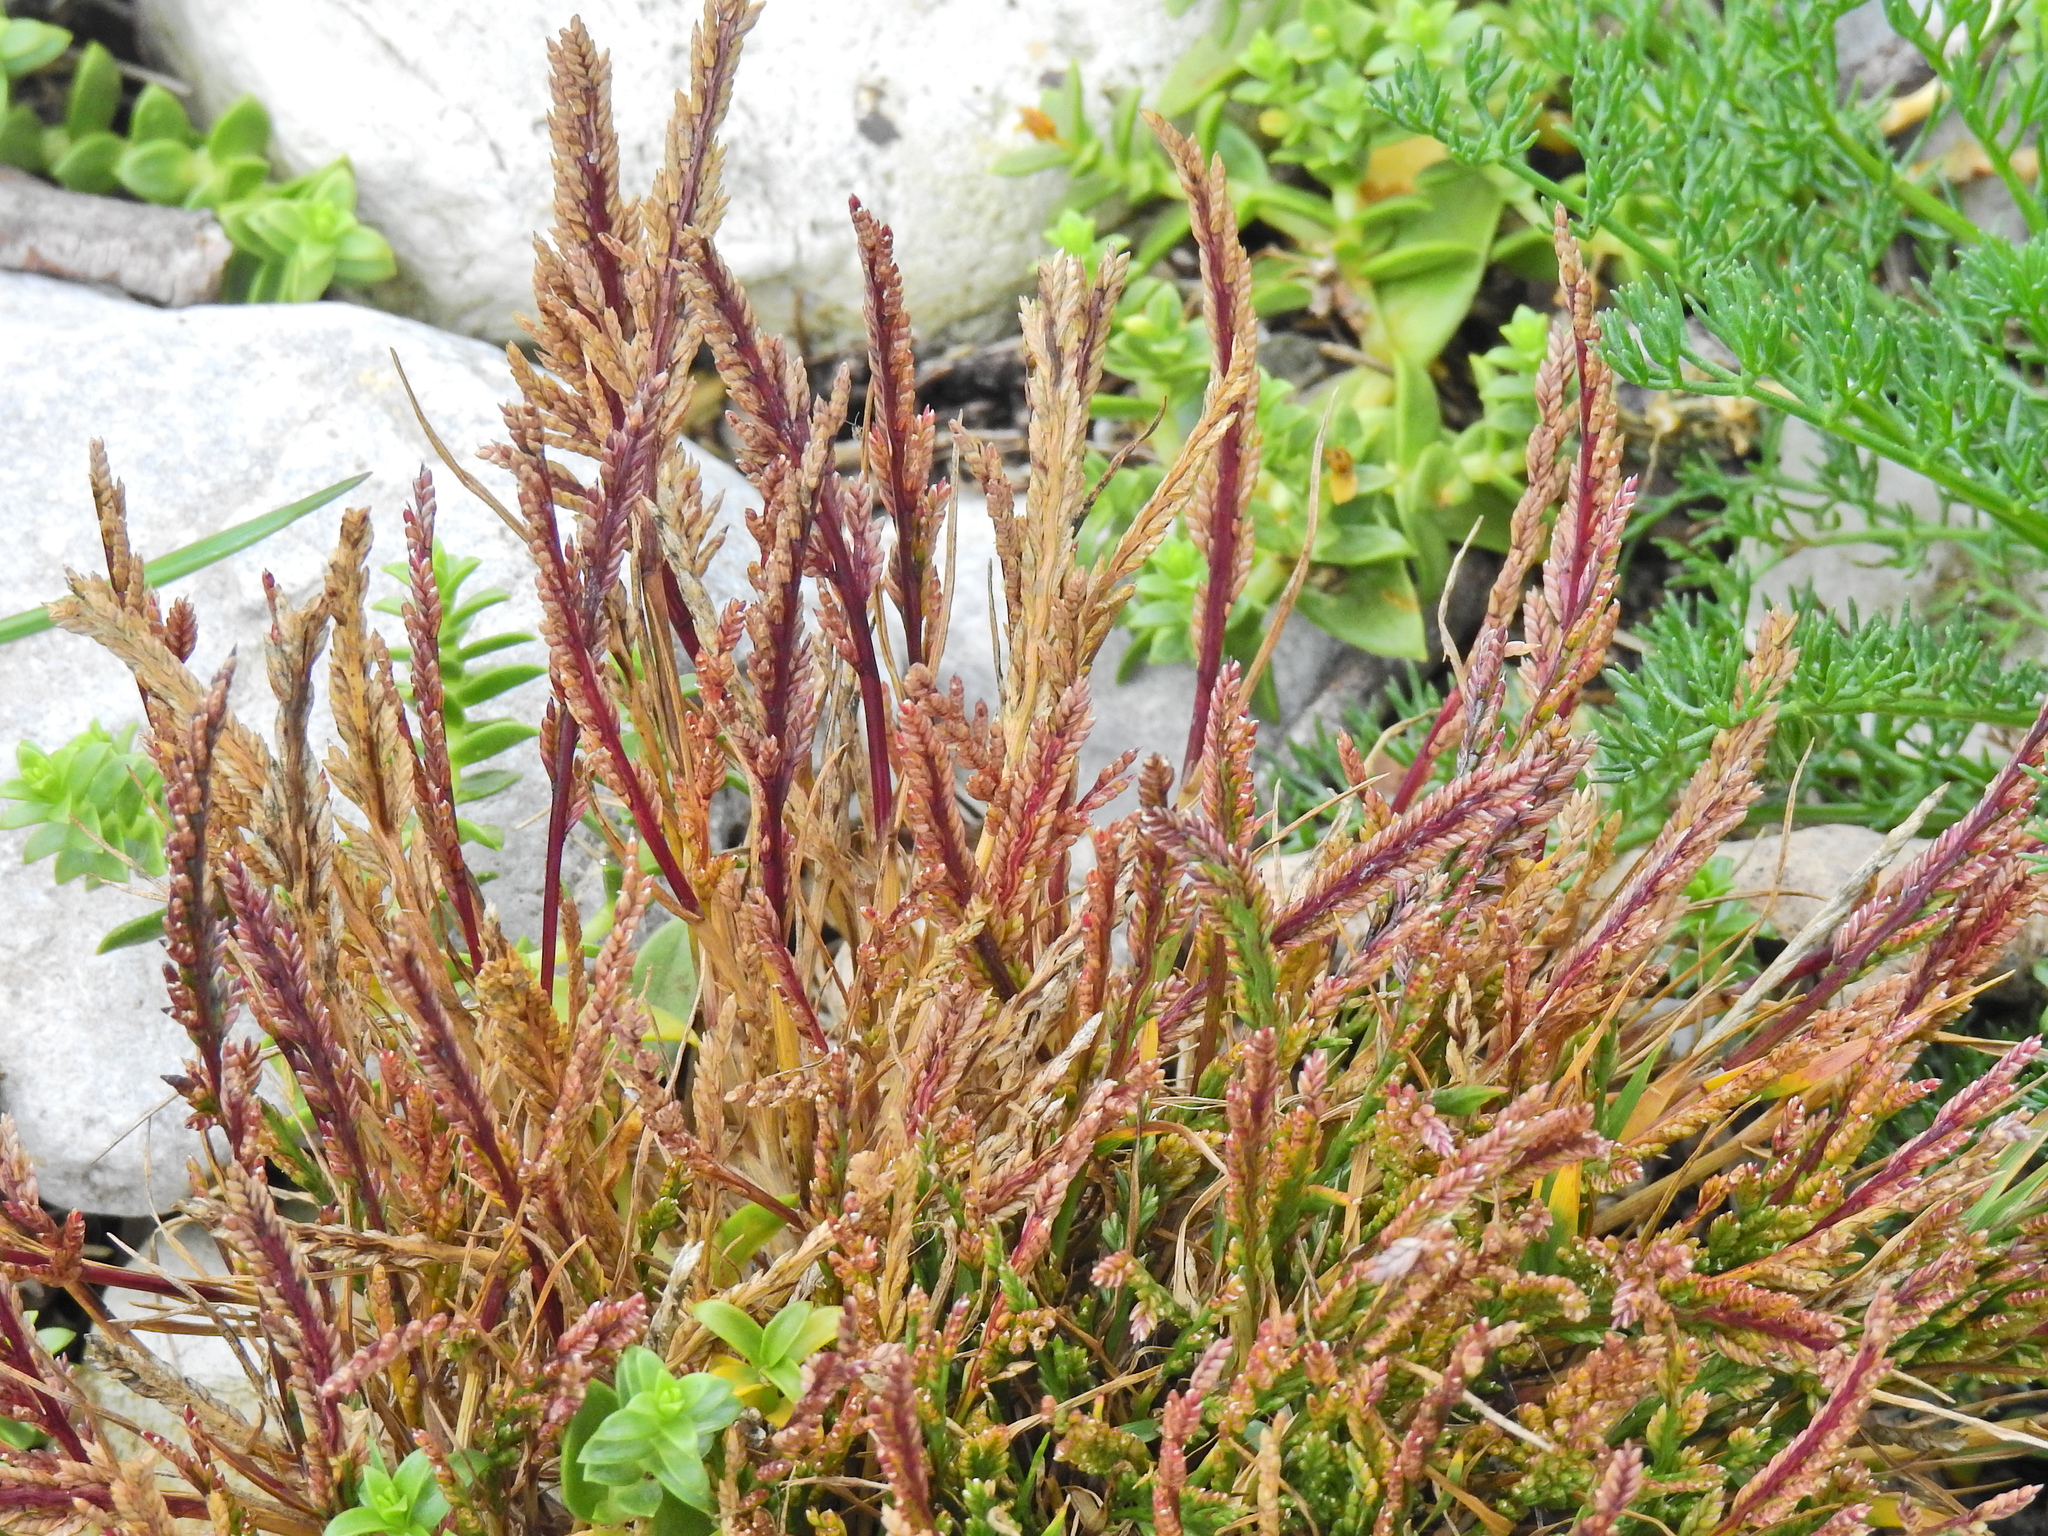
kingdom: Plantae
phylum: Tracheophyta
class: Liliopsida
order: Poales
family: Poaceae
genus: Catapodium
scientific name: Catapodium rigidum
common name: Fern-grass
